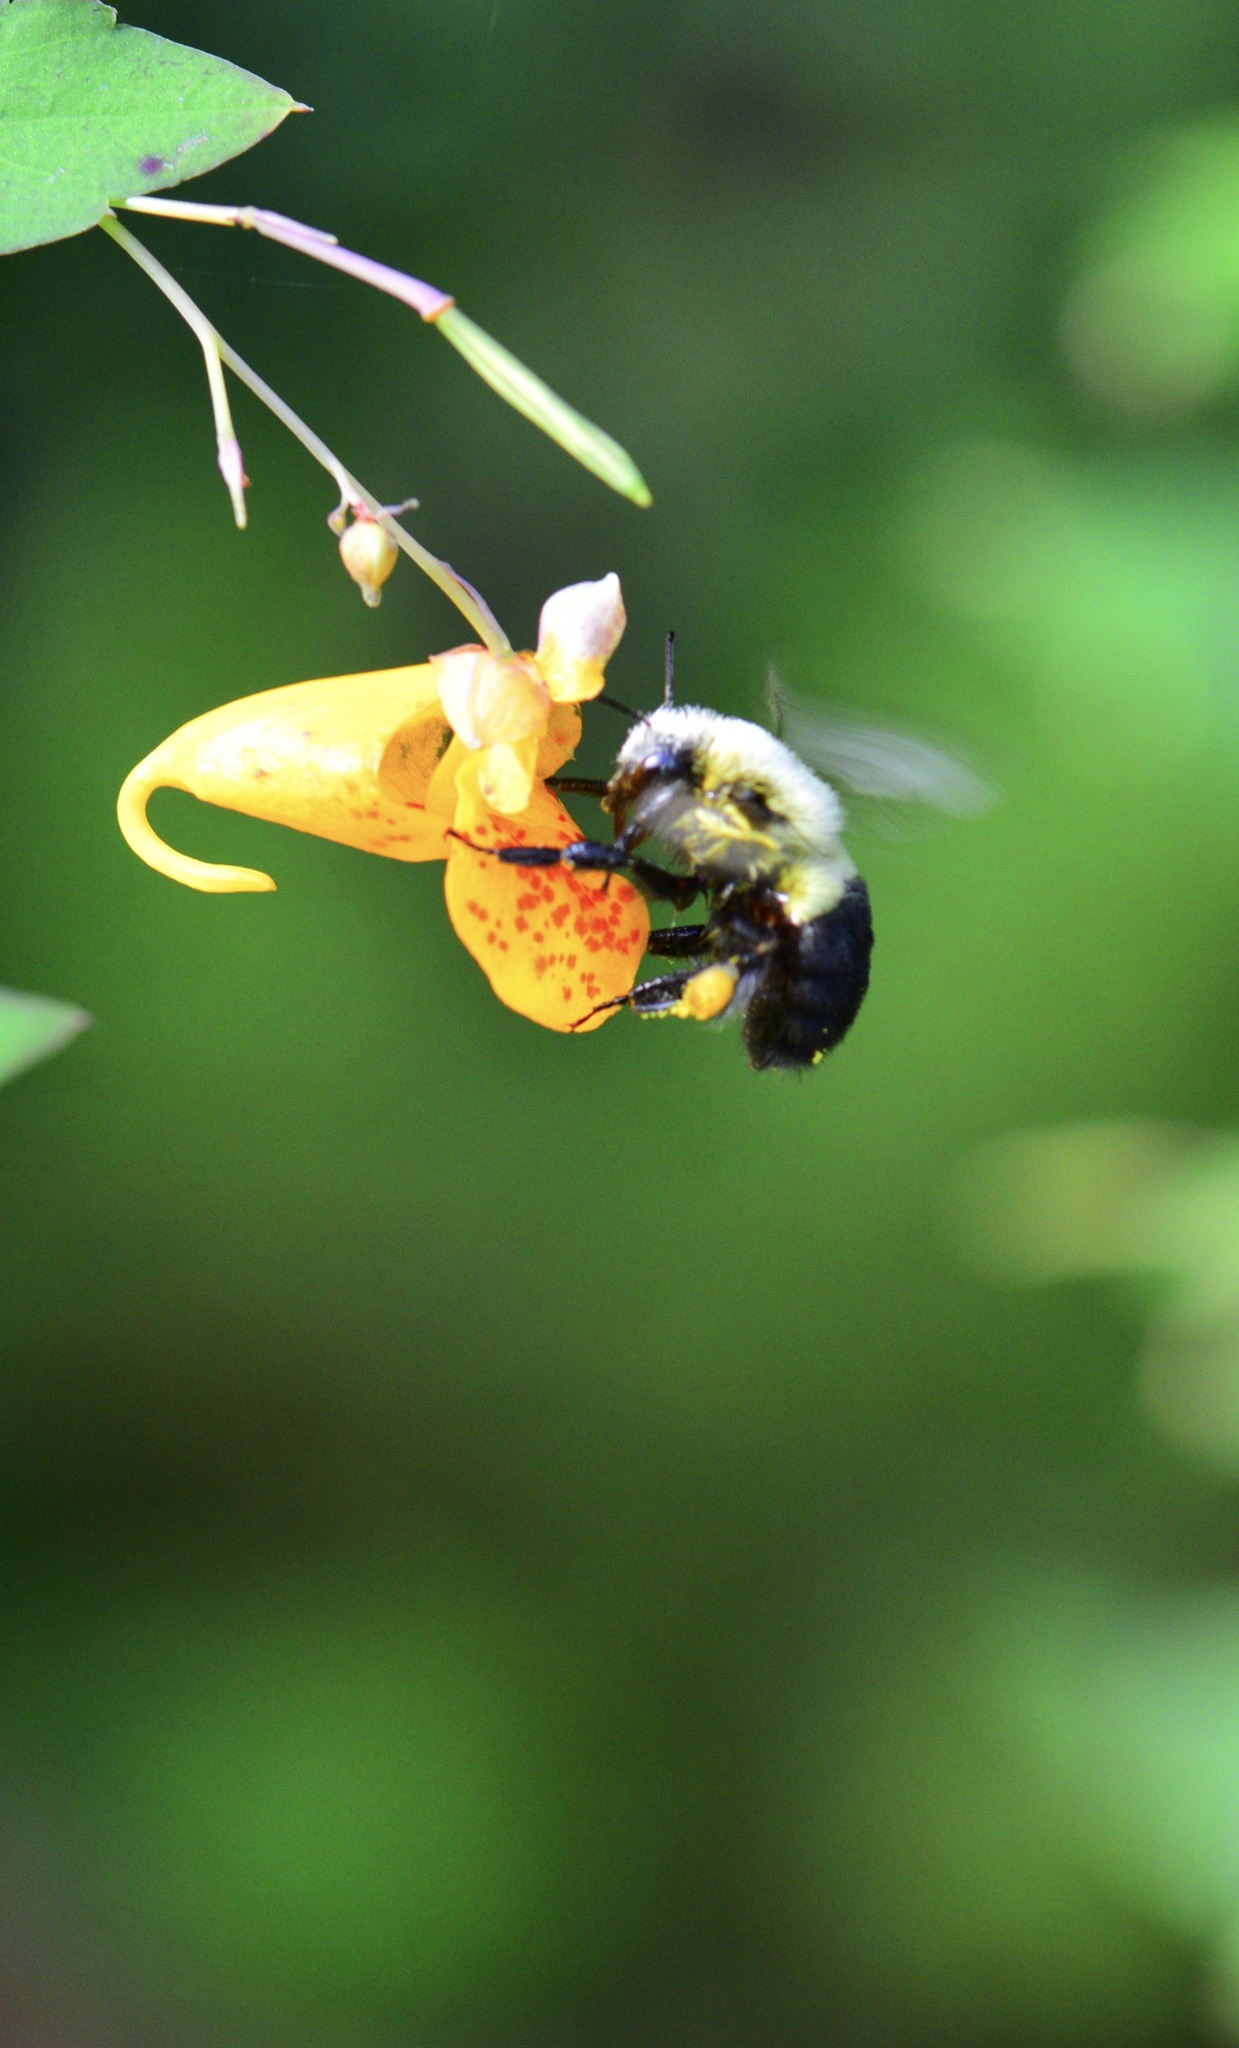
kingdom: Animalia
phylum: Arthropoda
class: Insecta
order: Hymenoptera
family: Apidae
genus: Bombus
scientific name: Bombus impatiens
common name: Common eastern bumble bee
